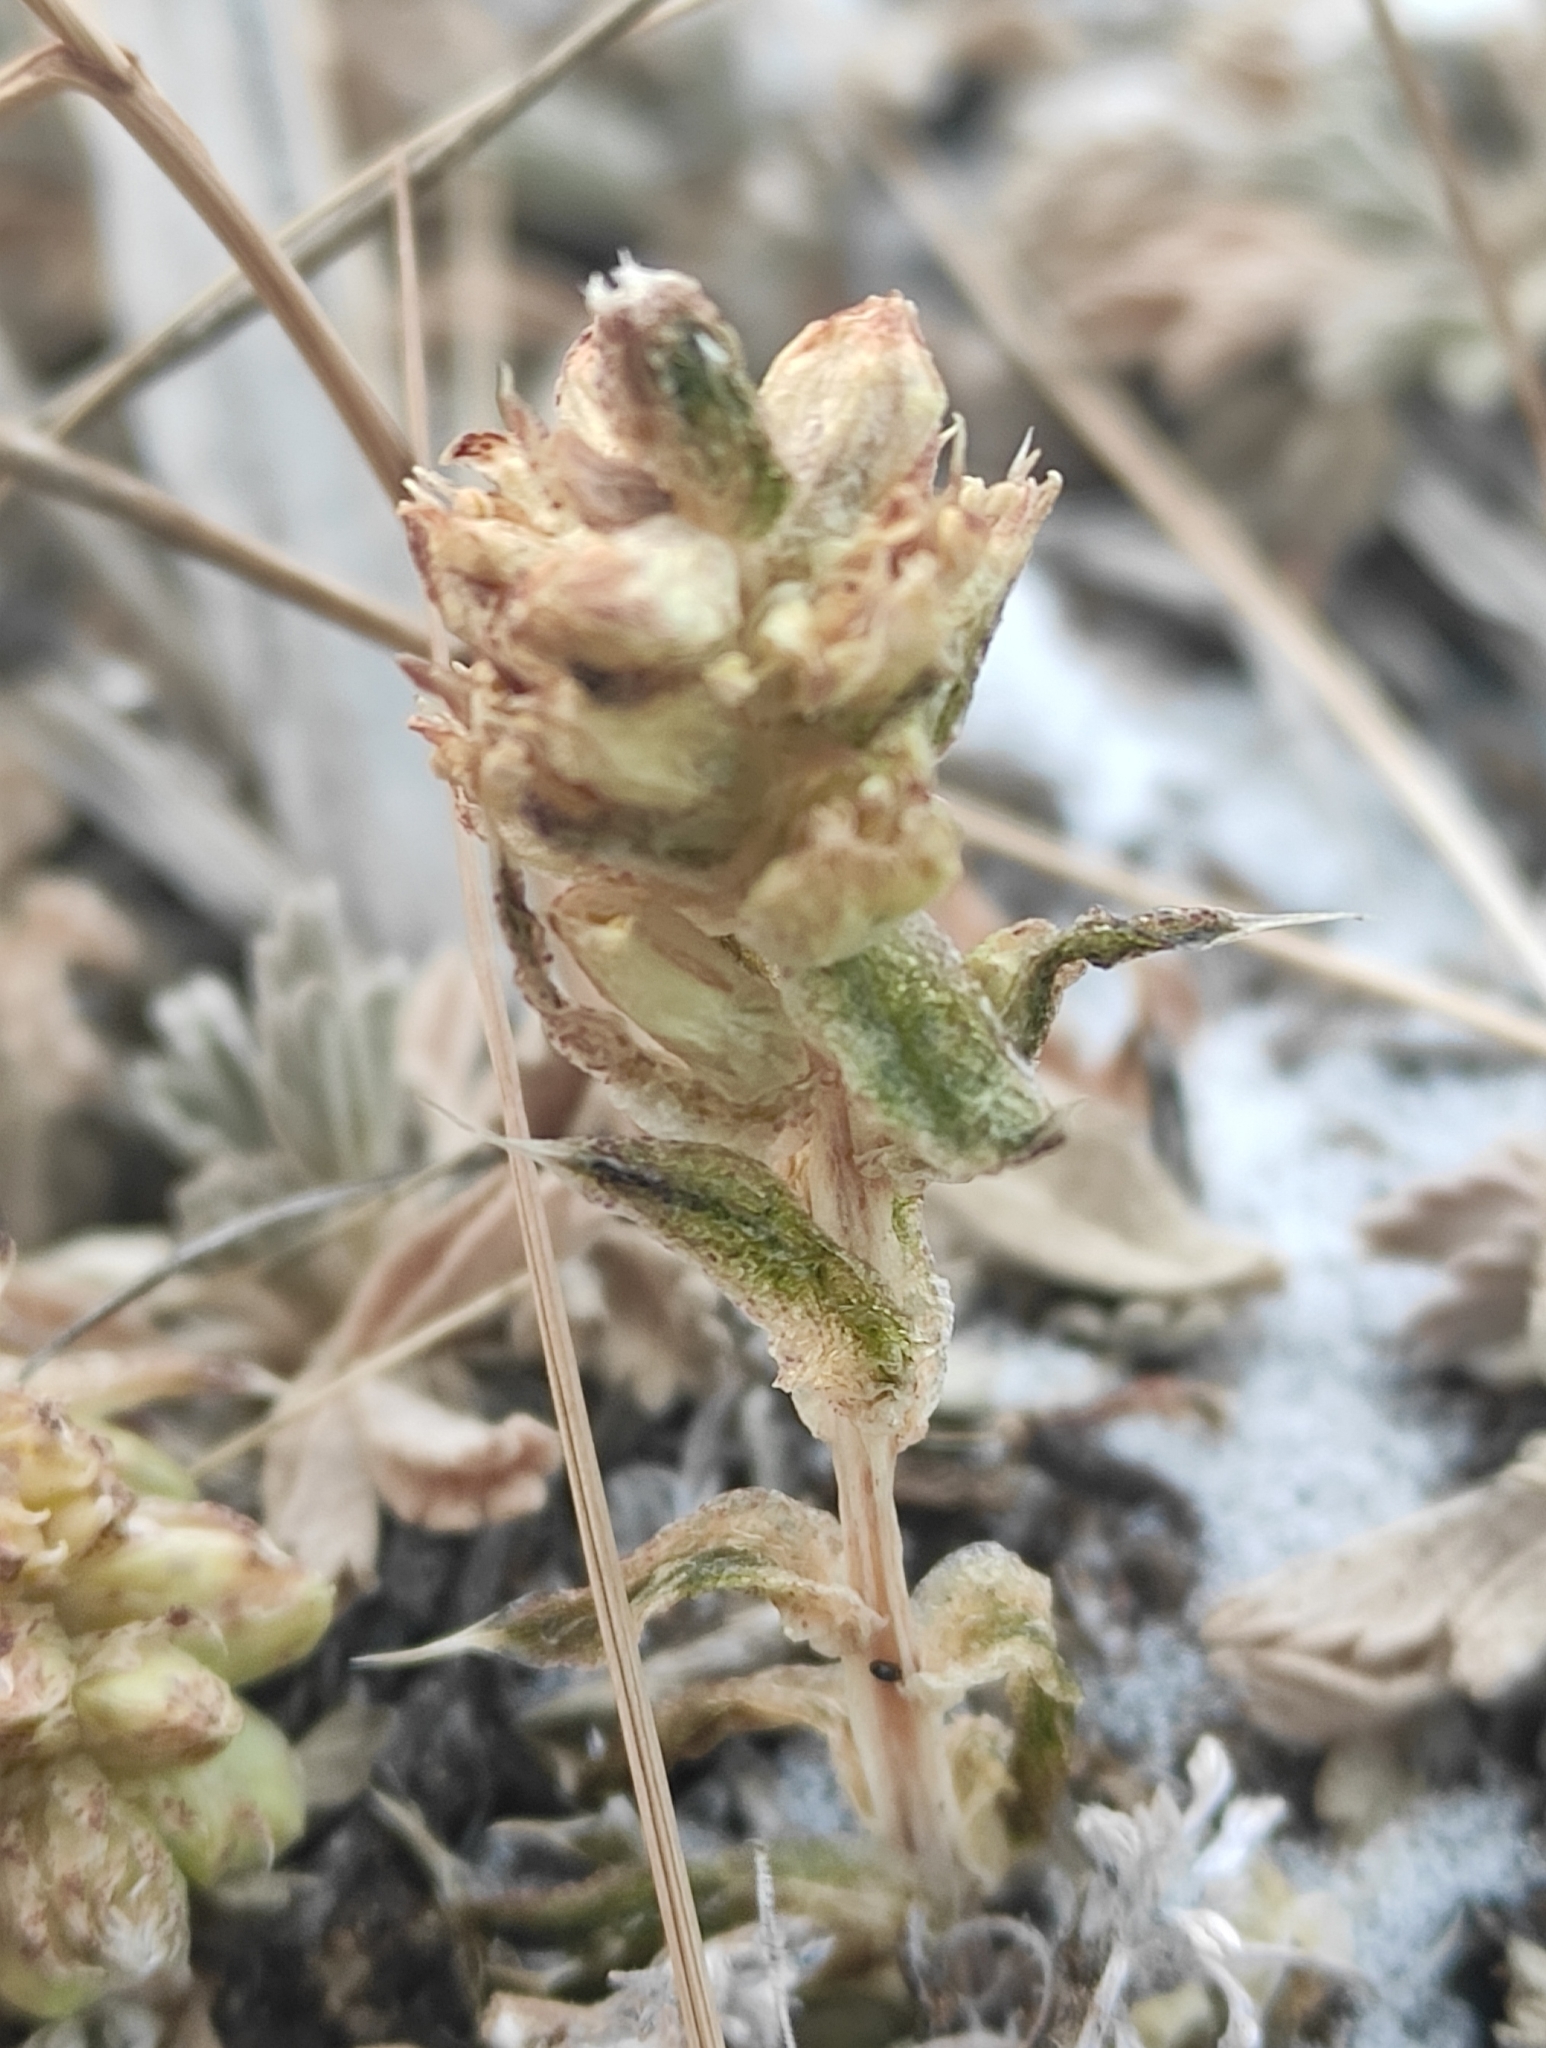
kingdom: Plantae
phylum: Tracheophyta
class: Magnoliopsida
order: Saxifragales
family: Crassulaceae
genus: Orostachys
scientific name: Orostachys spinosa
